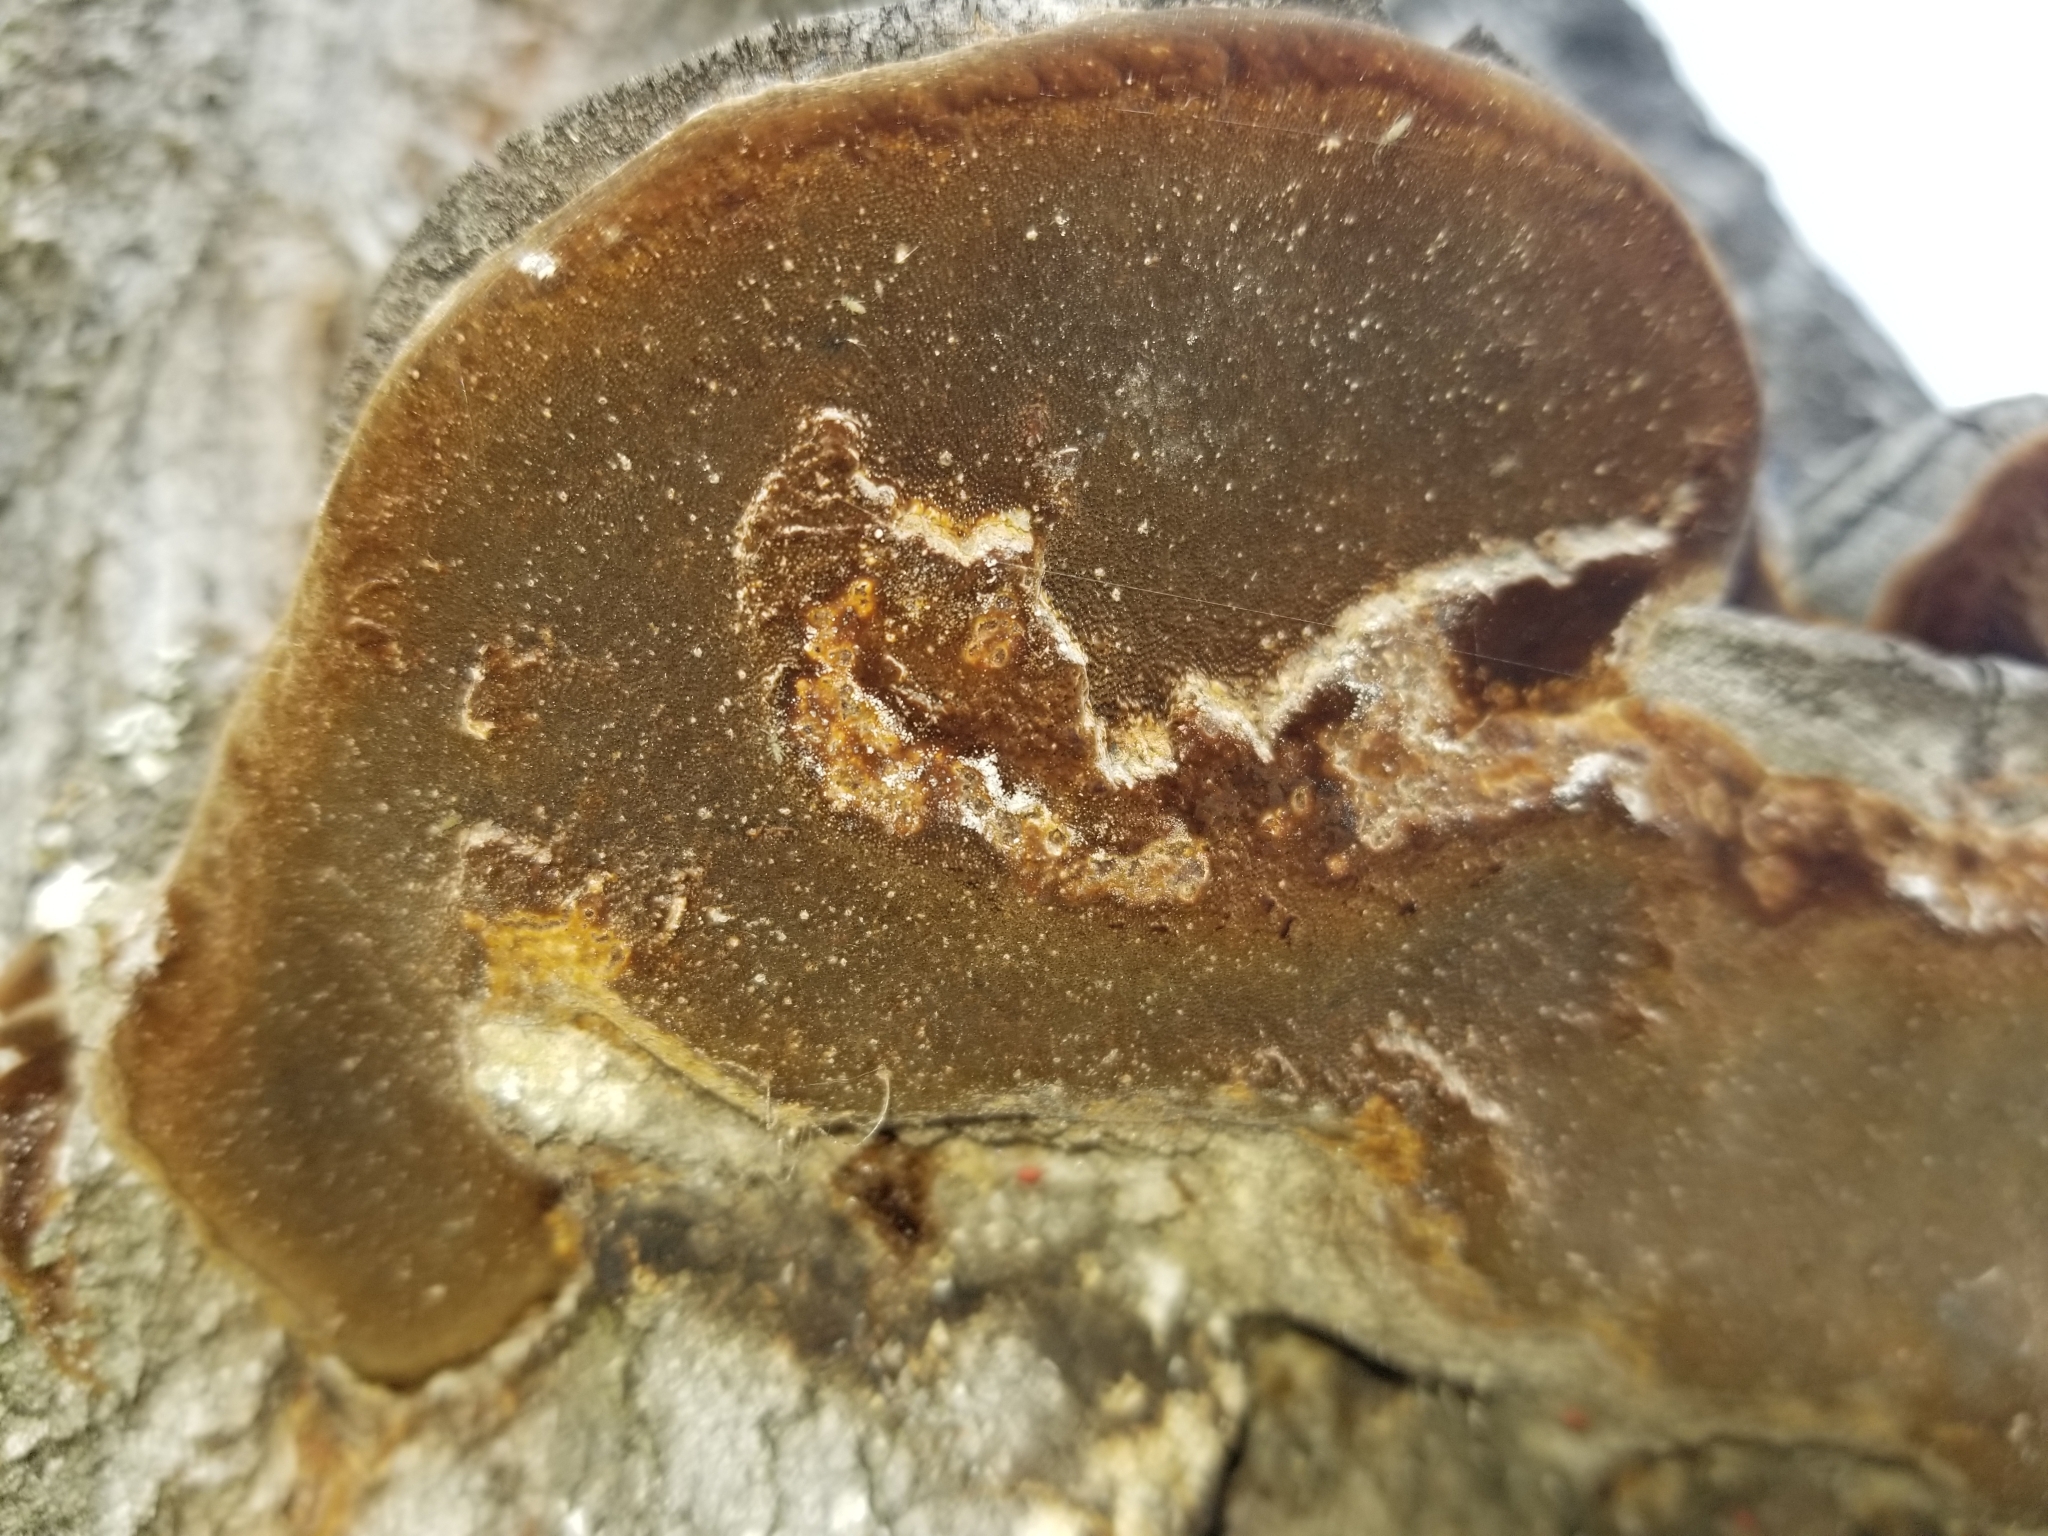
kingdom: Fungi
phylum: Basidiomycota
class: Agaricomycetes
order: Hymenochaetales
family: Hymenochaetaceae
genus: Phellinus
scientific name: Phellinus tremulae
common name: Aspen bracket
